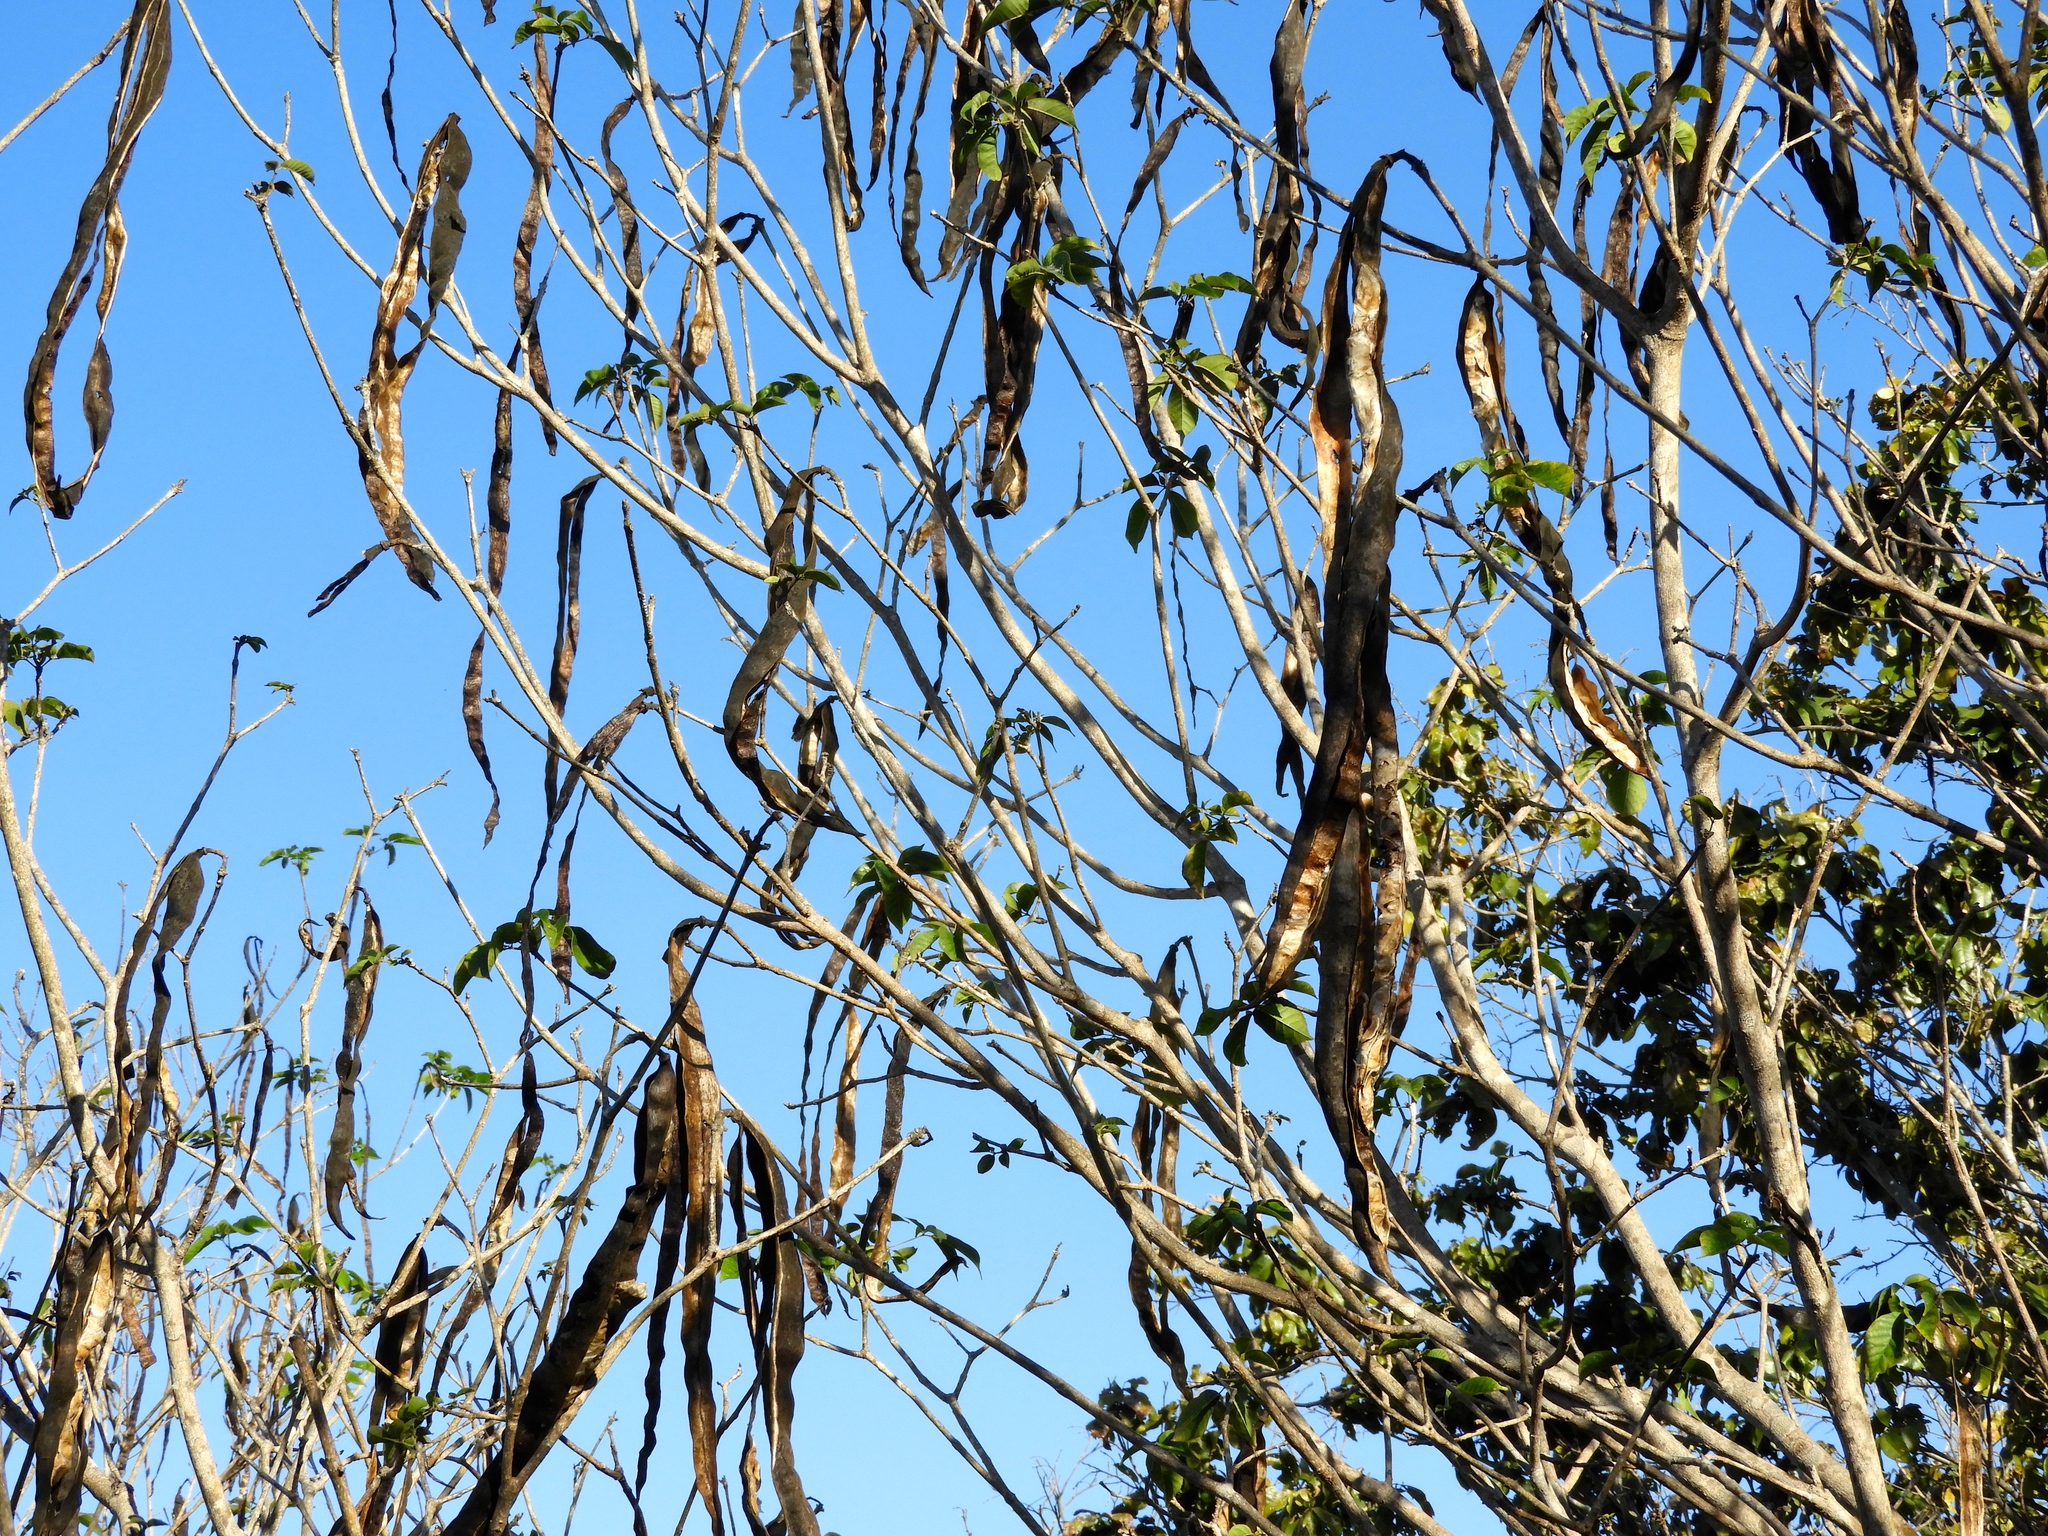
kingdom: Plantae
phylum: Tracheophyta
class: Magnoliopsida
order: Lamiales
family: Bignoniaceae
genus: Handroanthus
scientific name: Handroanthus impetiginosum
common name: Pink trumpet tree
